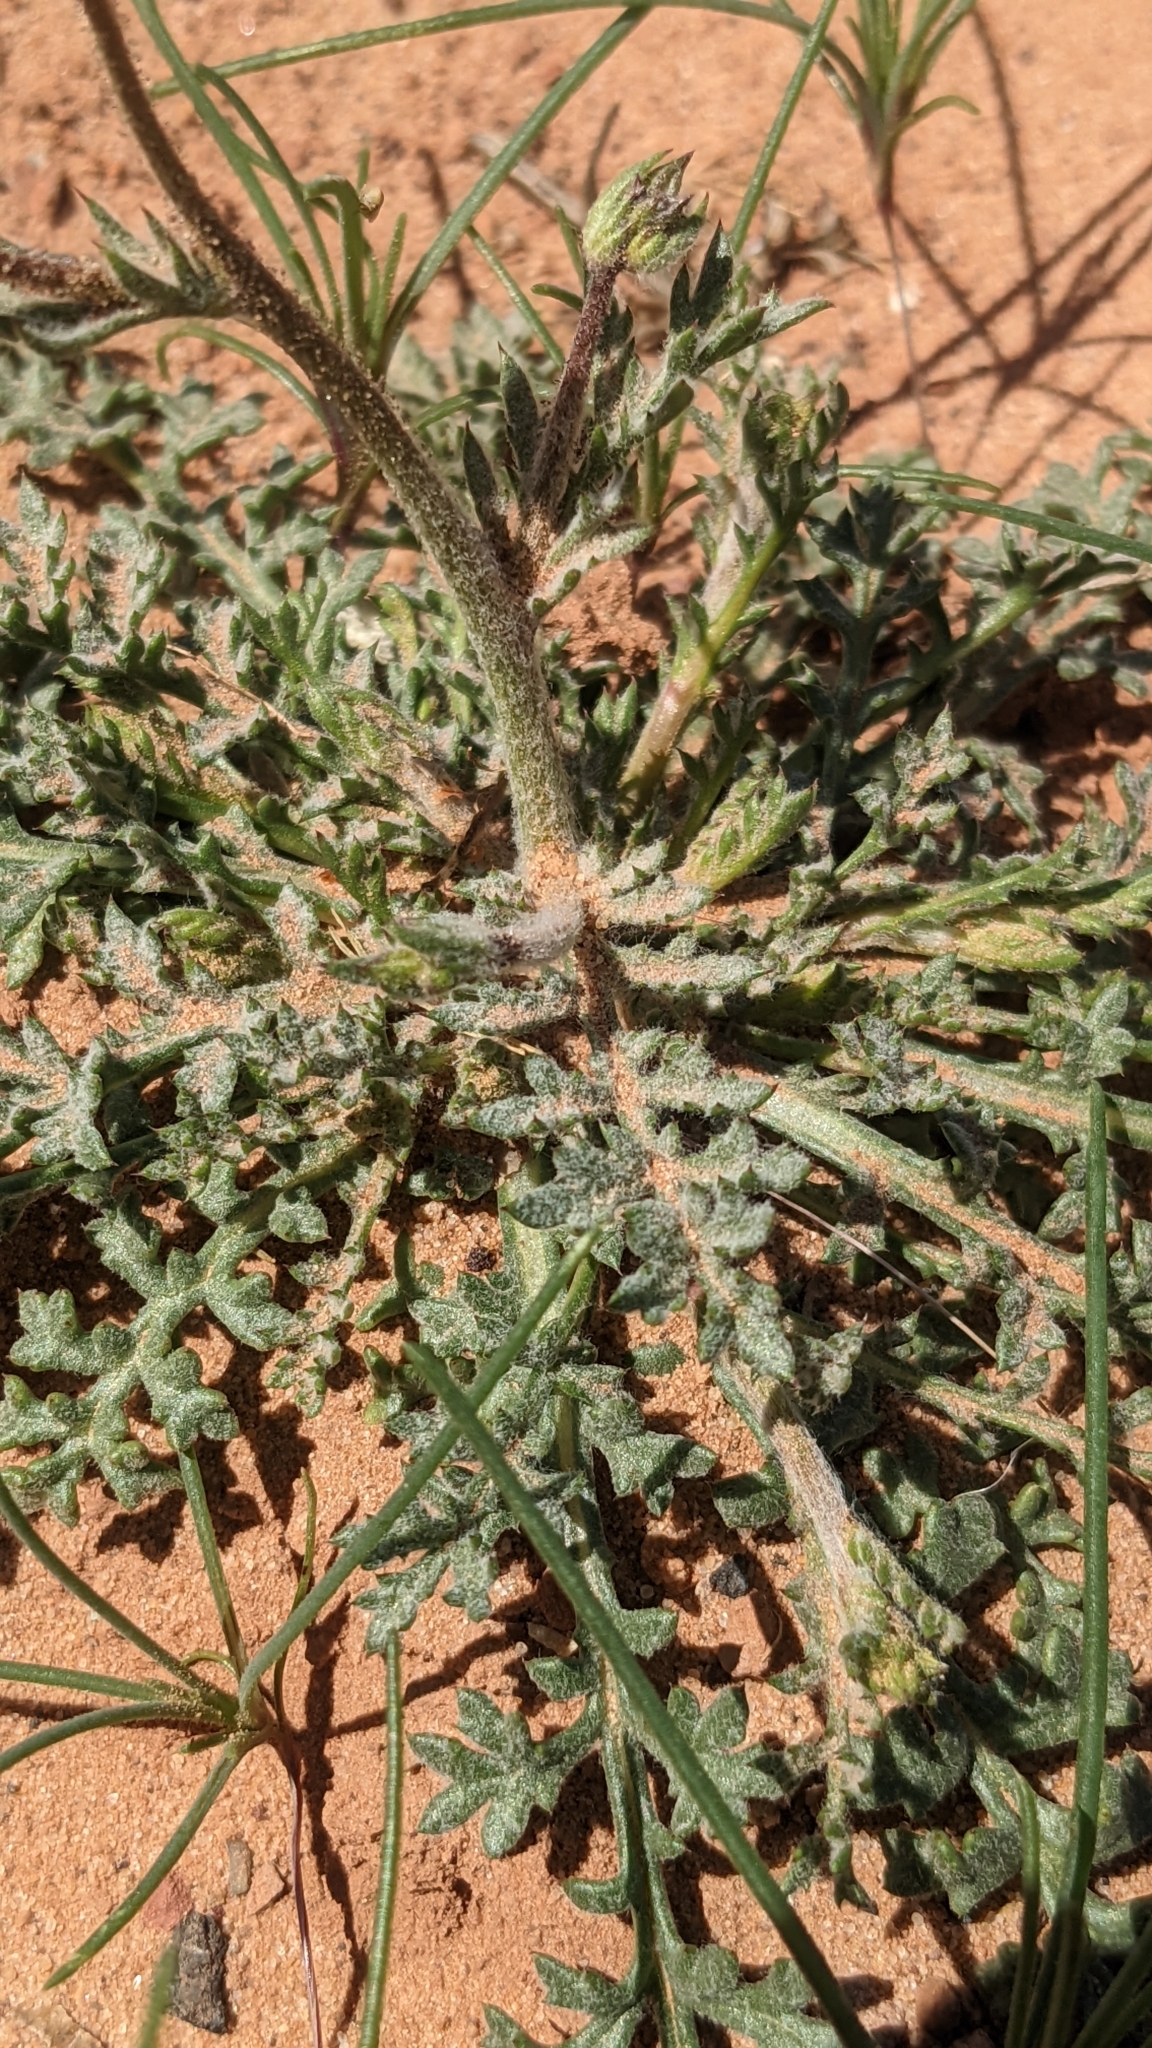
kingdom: Plantae
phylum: Tracheophyta
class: Magnoliopsida
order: Ericales
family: Polemoniaceae
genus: Gilia
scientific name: Gilia stellata
